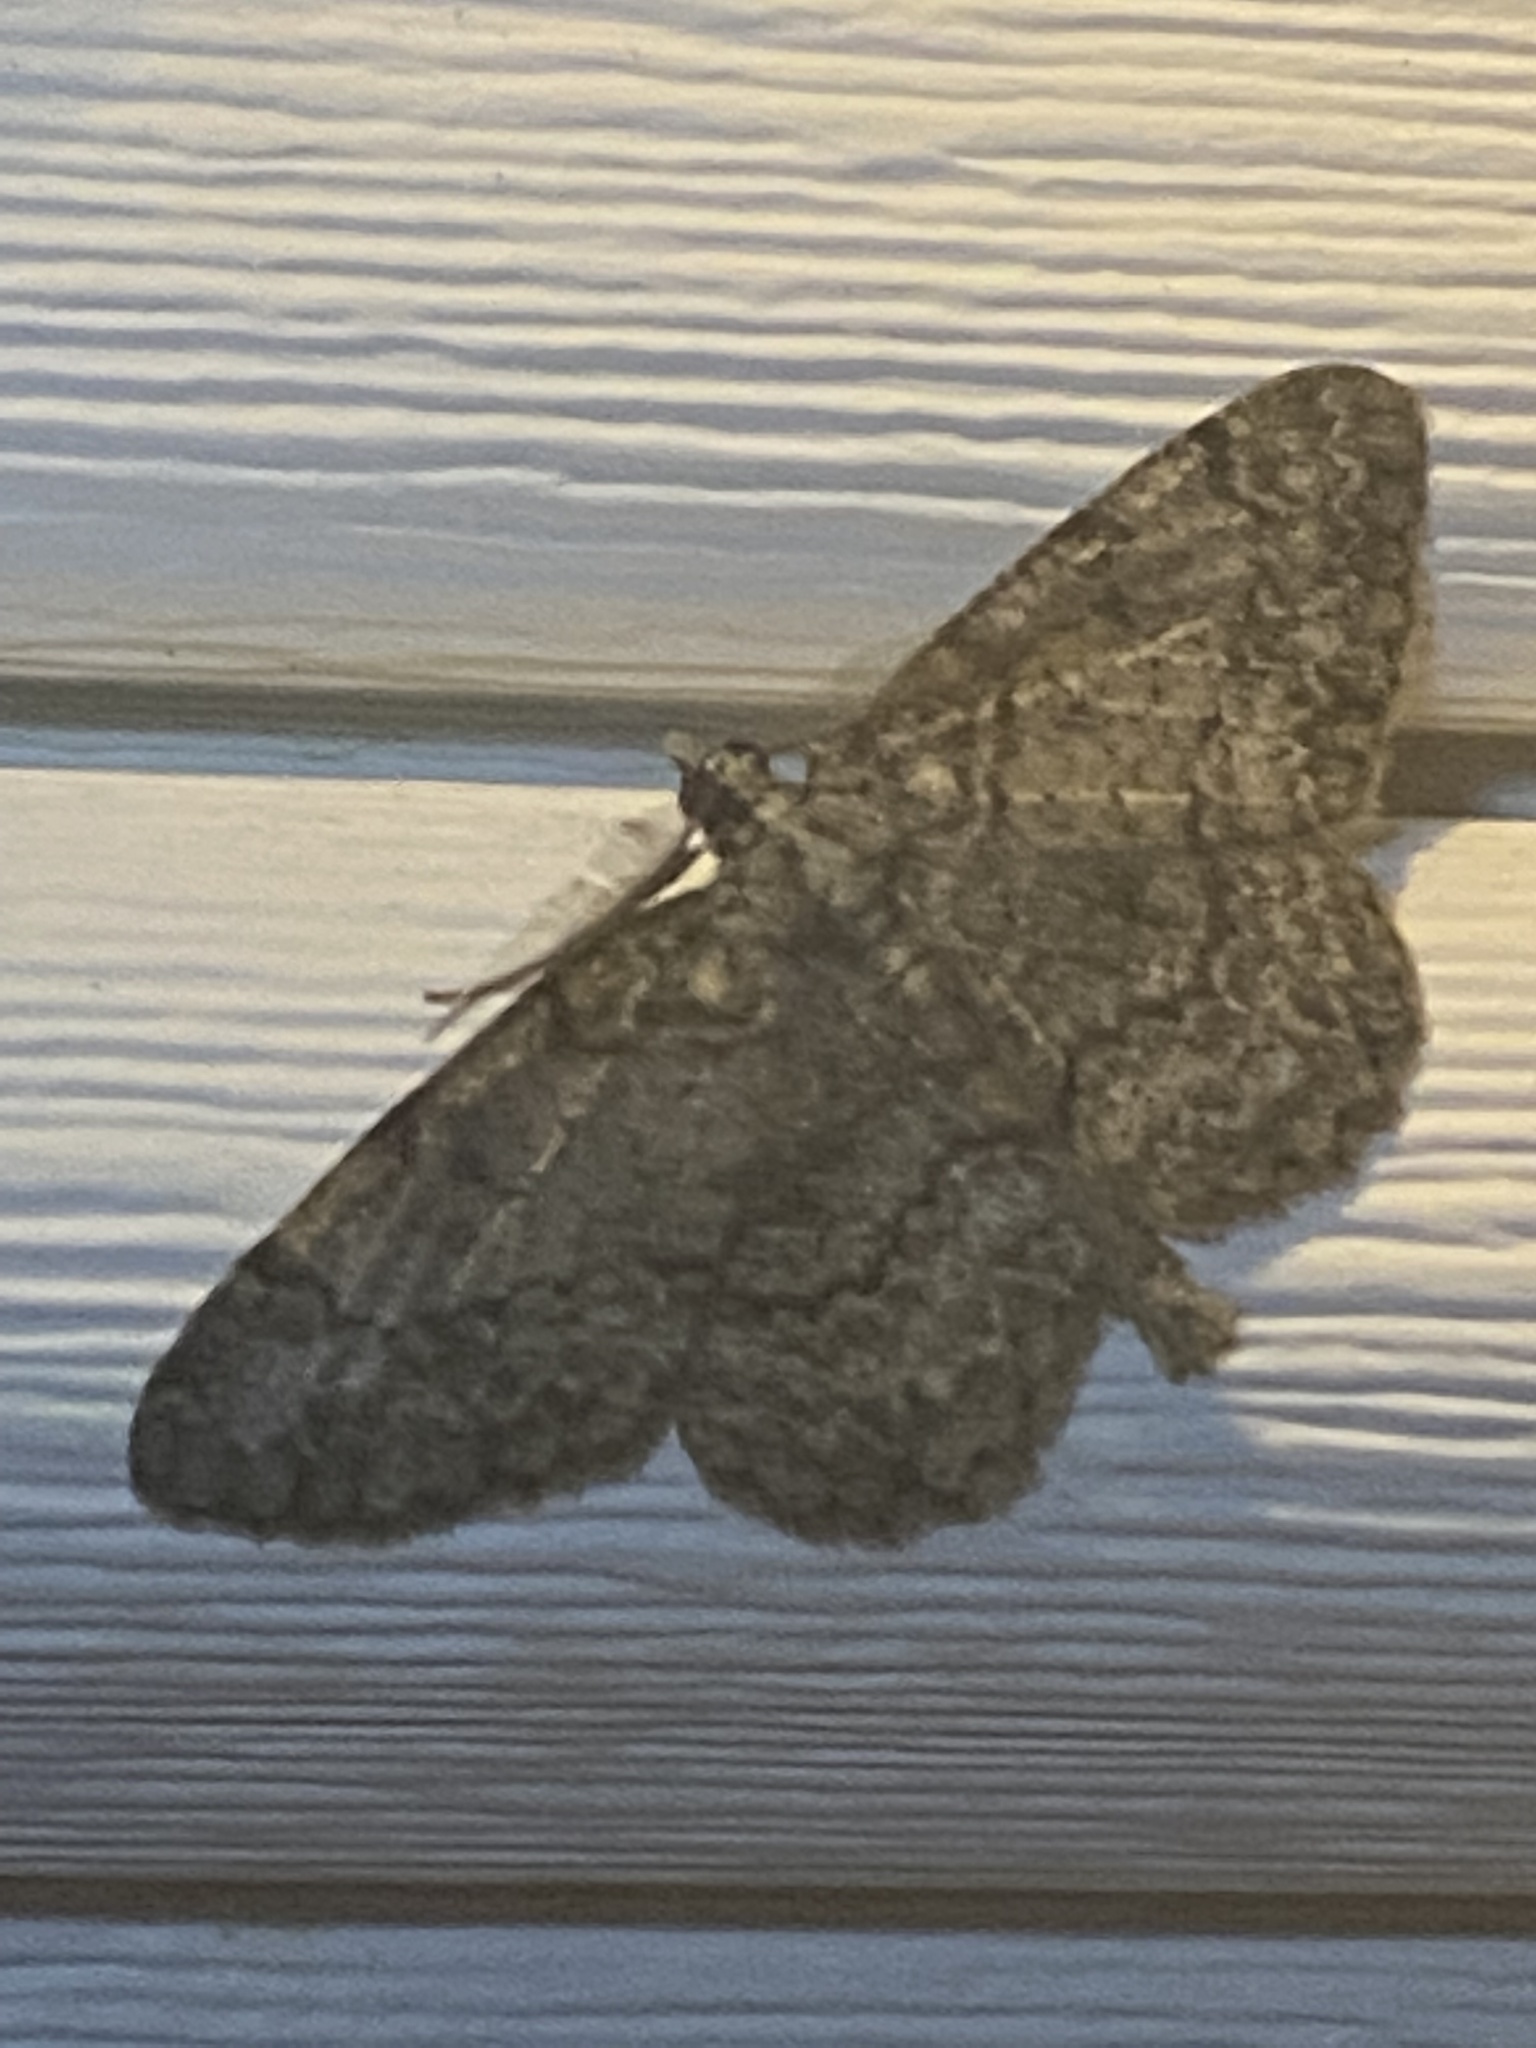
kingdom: Animalia
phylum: Arthropoda
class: Insecta
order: Lepidoptera
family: Geometridae
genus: Protoboarmia
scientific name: Protoboarmia porcelaria
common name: Porcelain gray
